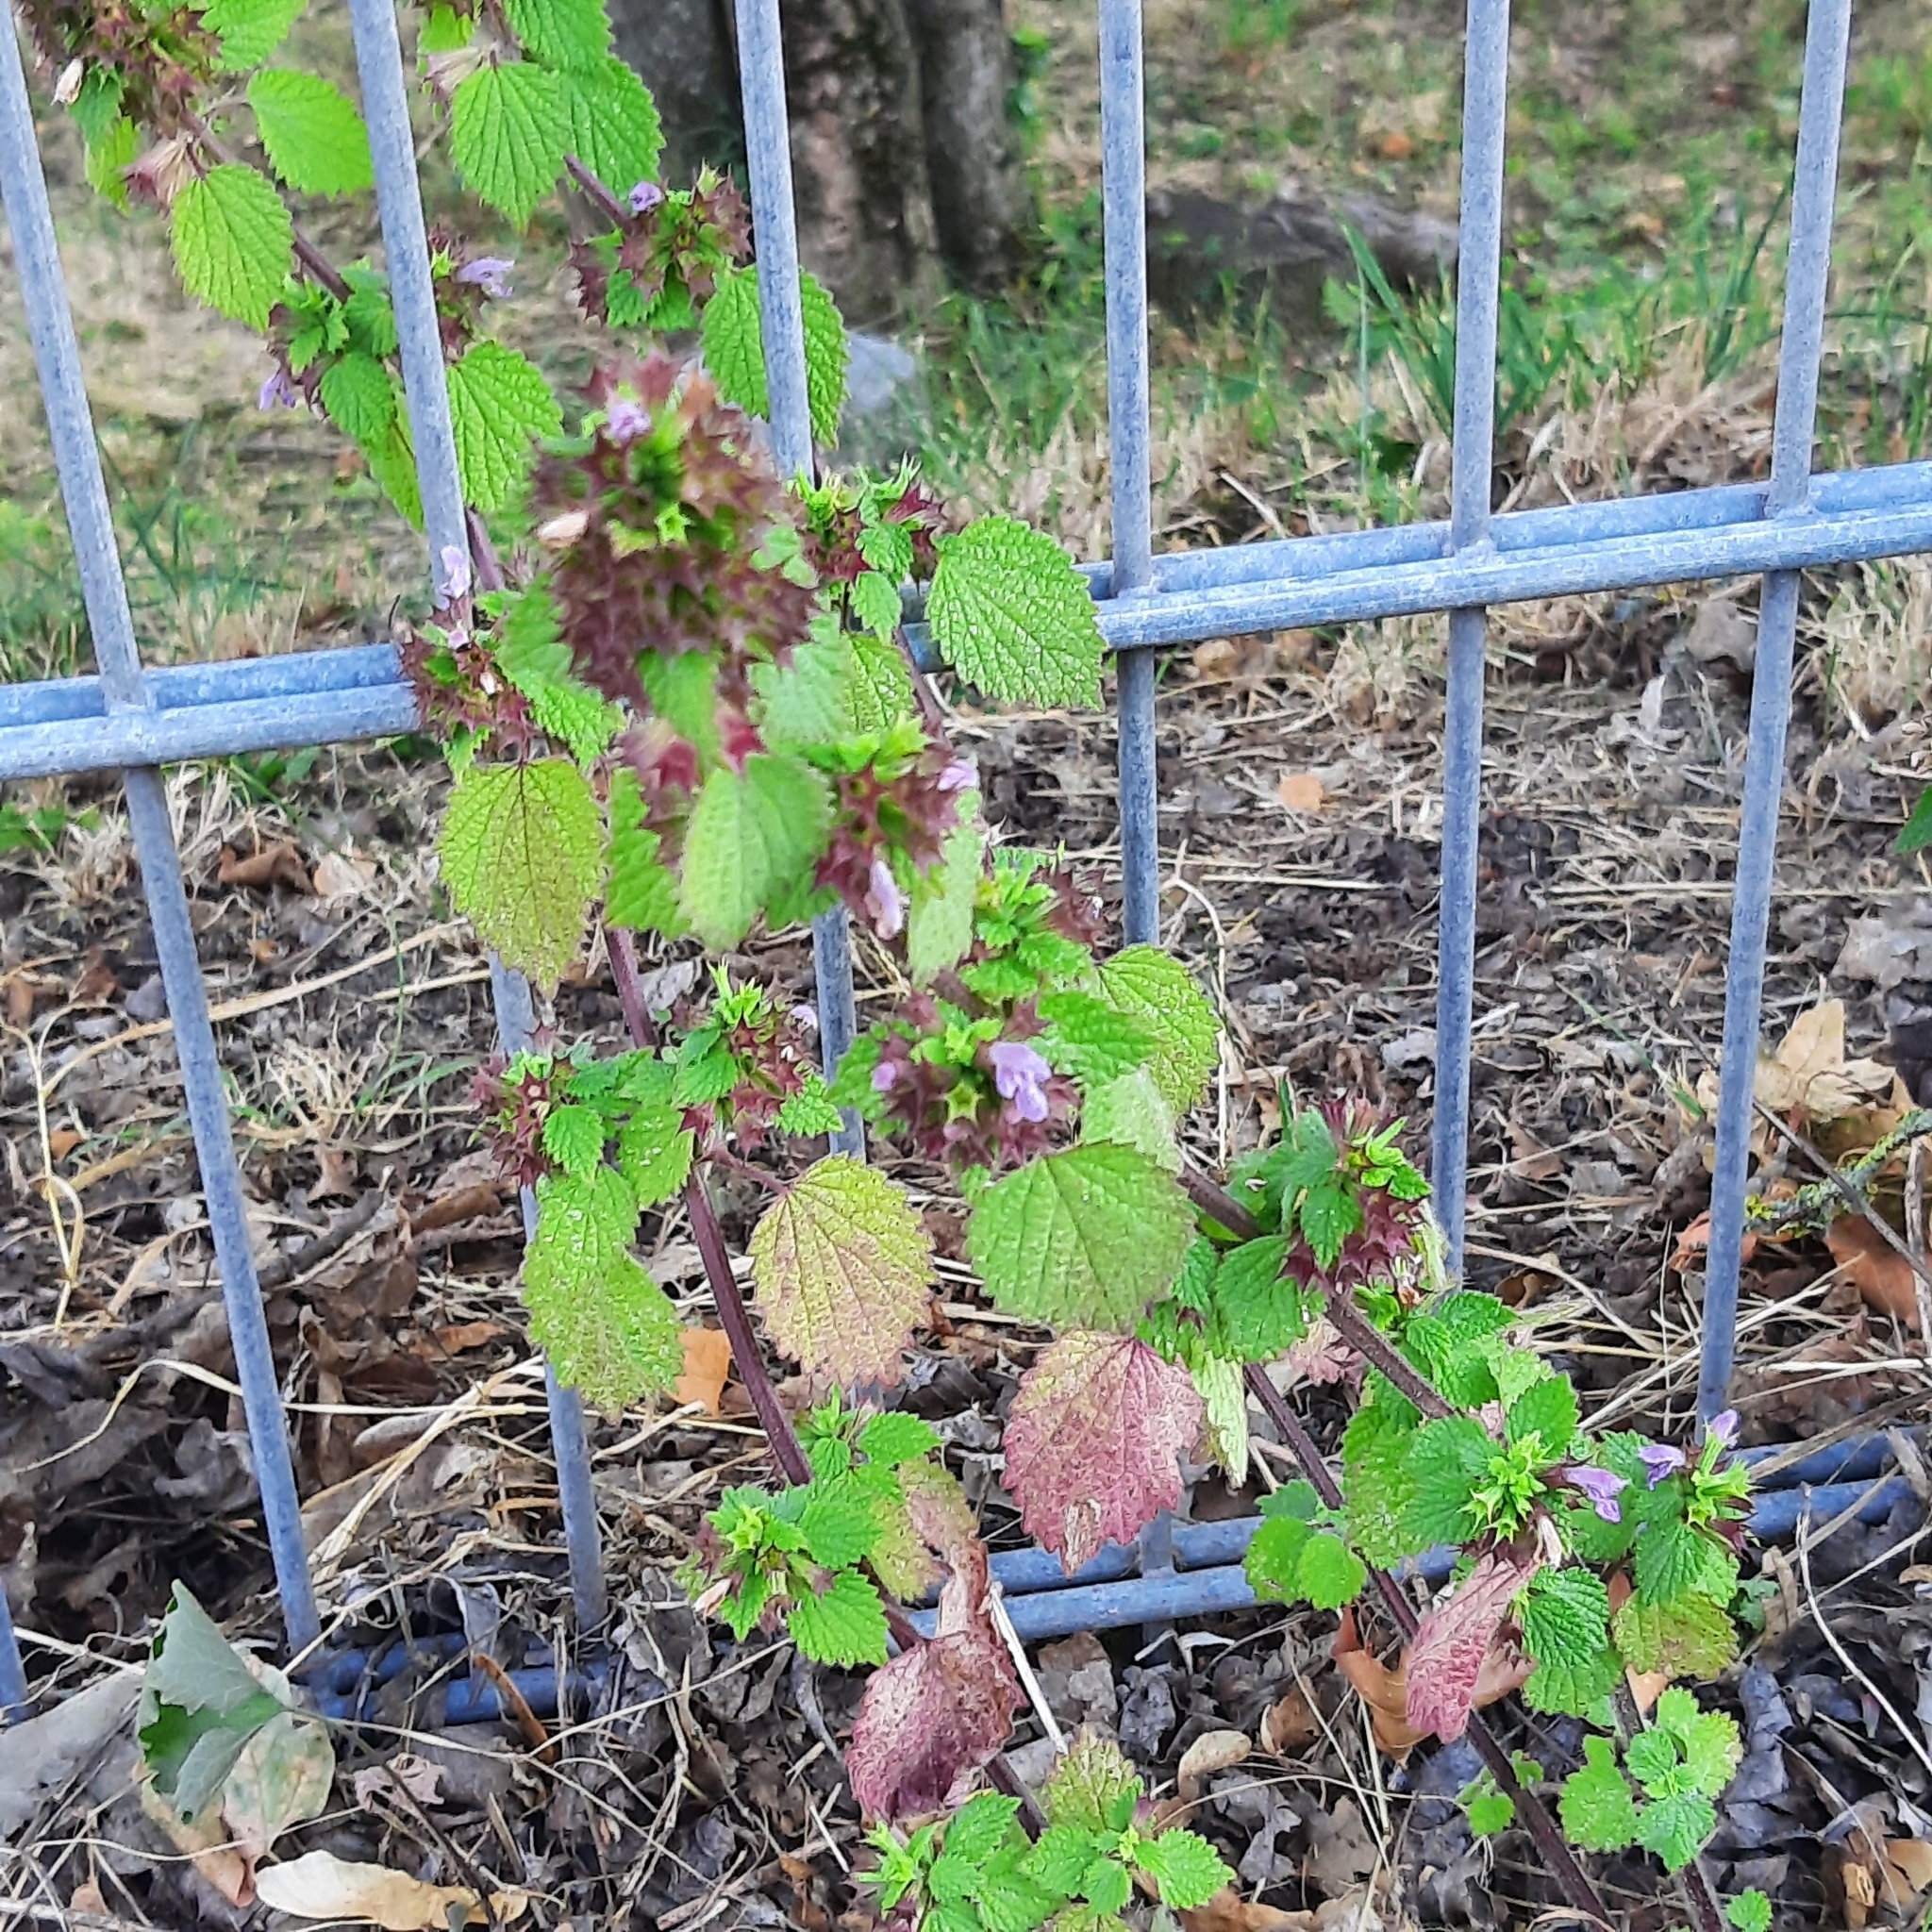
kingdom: Plantae
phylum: Tracheophyta
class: Magnoliopsida
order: Lamiales
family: Lamiaceae
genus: Ballota
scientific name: Ballota nigra
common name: Black horehound
